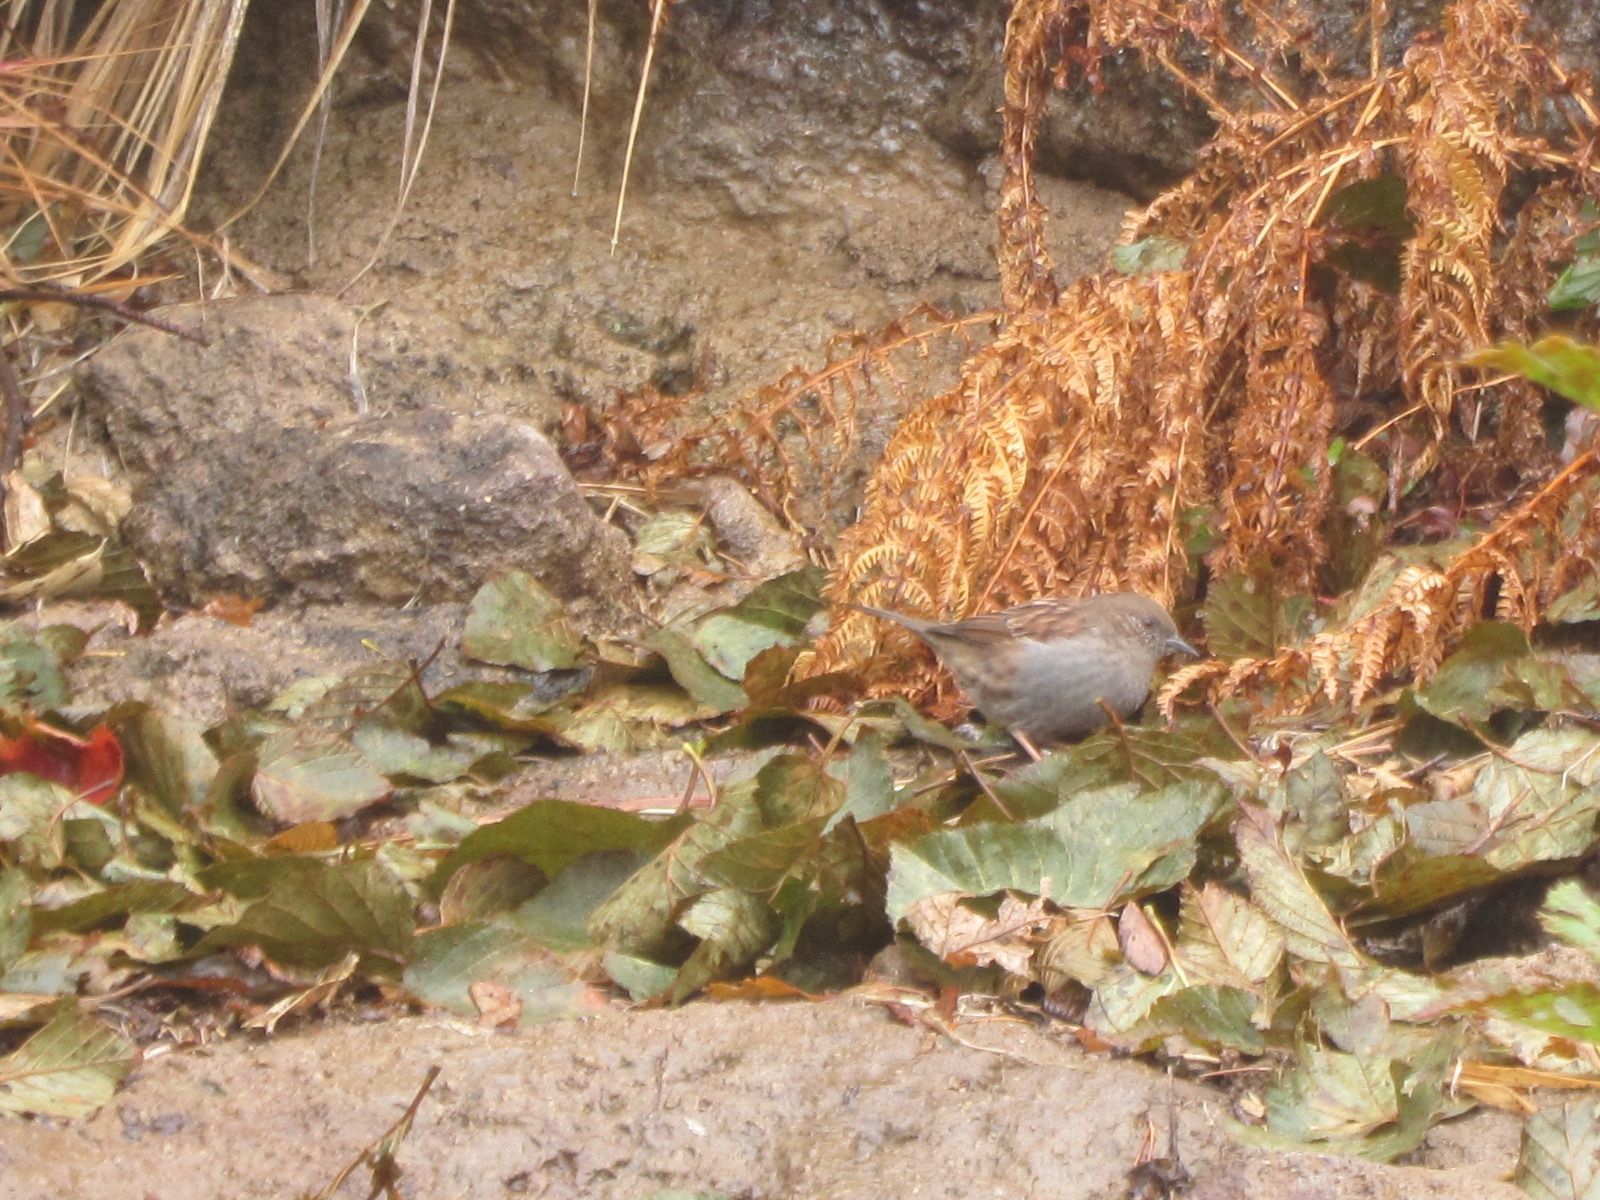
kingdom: Animalia
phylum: Chordata
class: Aves
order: Passeriformes
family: Prunellidae
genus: Prunella
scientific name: Prunella rubida
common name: Japanese accentor
